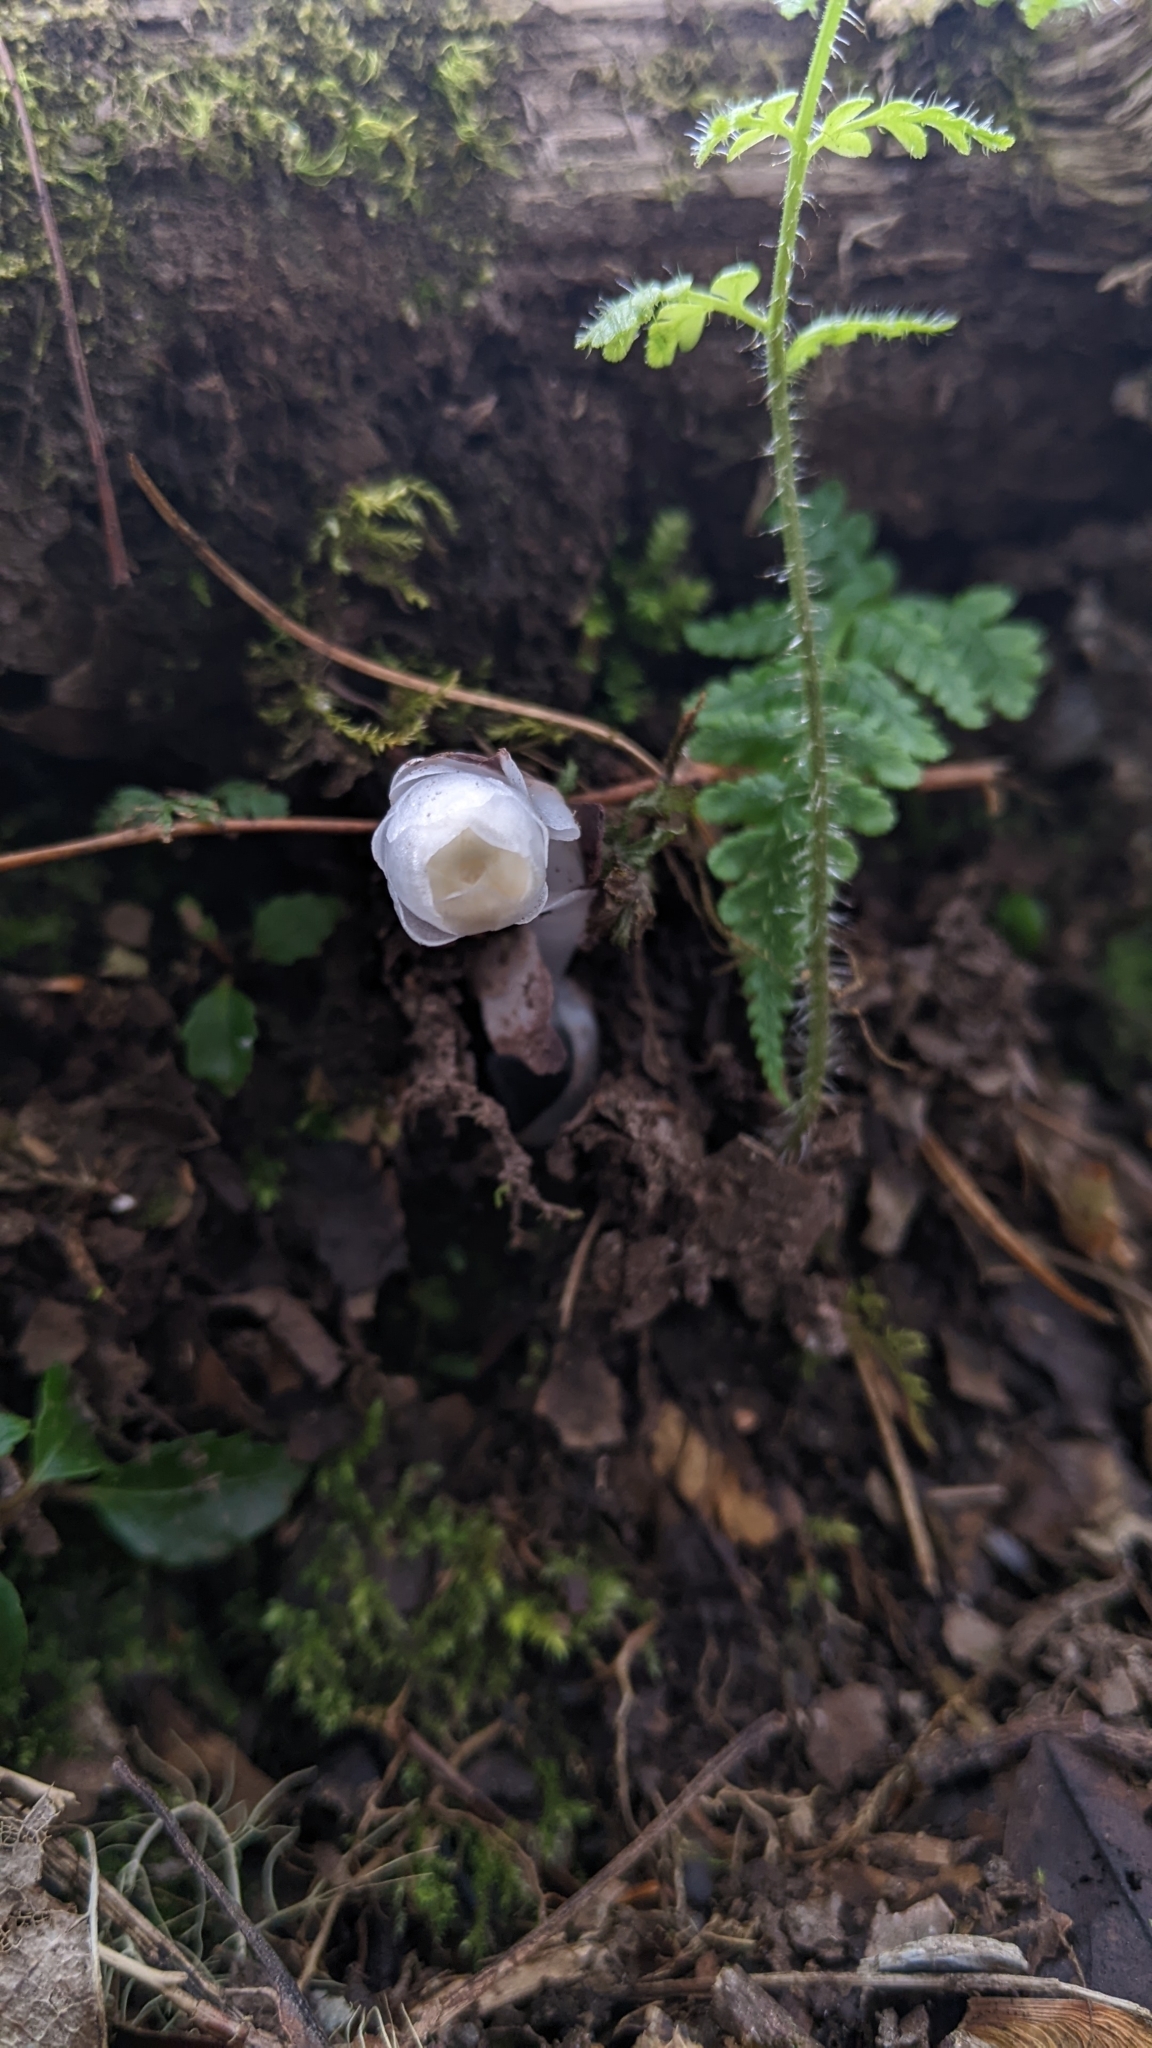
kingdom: Plantae
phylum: Tracheophyta
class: Magnoliopsida
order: Ericales
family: Ericaceae
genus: Monotropastrum
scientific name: Monotropastrum humile
